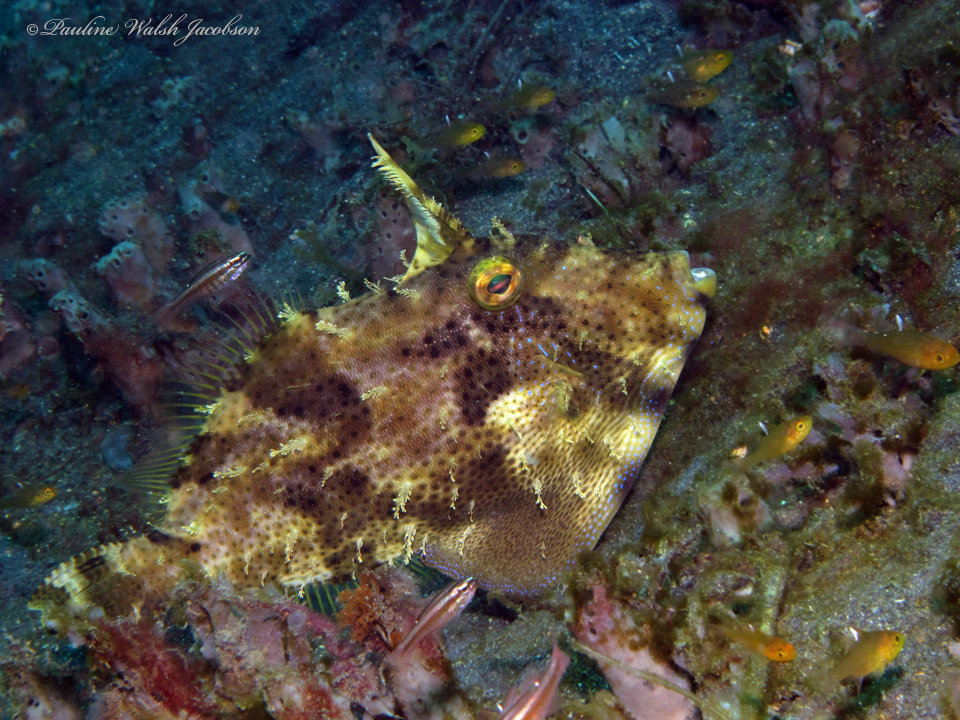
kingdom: Animalia
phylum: Chordata
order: Tetraodontiformes
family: Monacanthidae
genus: Pseudomonacanthus
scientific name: Pseudomonacanthus macrurus
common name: Blotchy filefish
